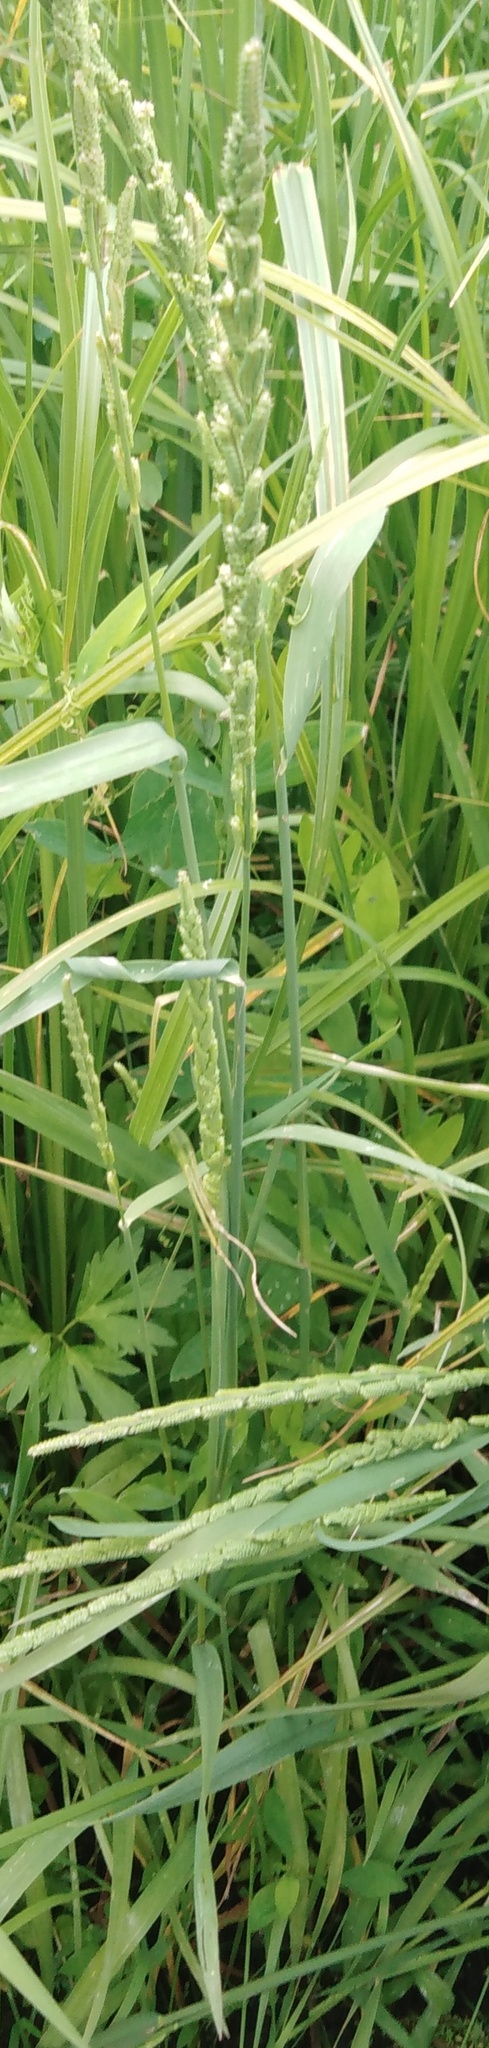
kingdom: Plantae
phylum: Tracheophyta
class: Liliopsida
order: Poales
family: Poaceae
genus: Beckmannia
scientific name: Beckmannia eruciformis
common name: European slough-grass
